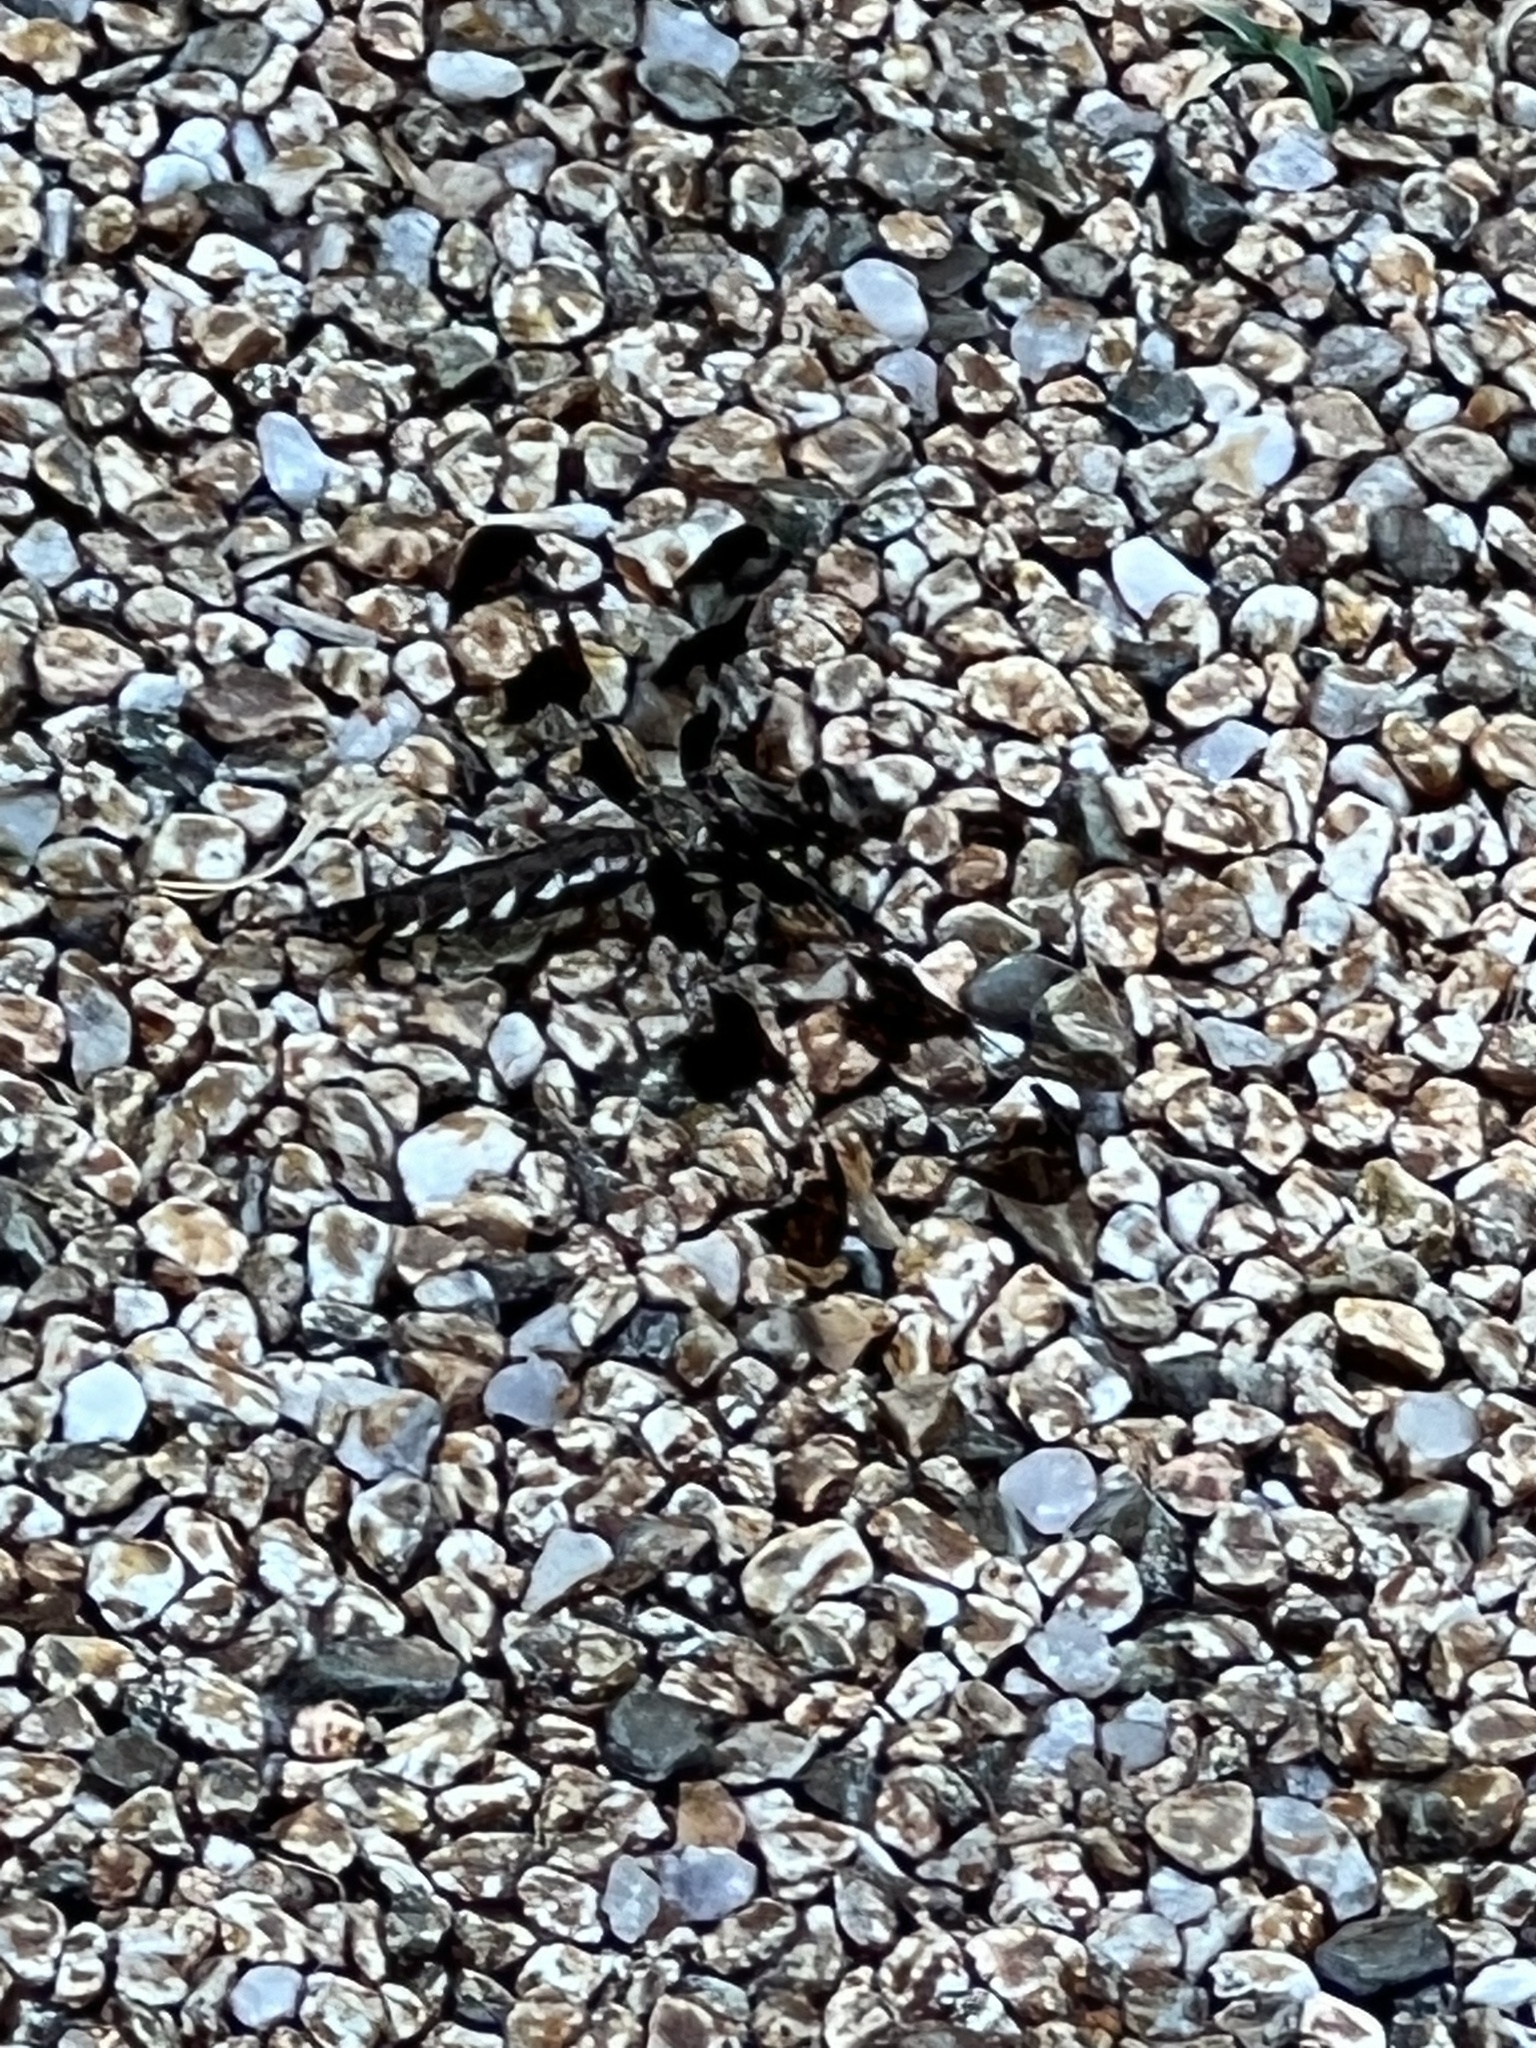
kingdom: Animalia
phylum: Arthropoda
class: Insecta
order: Odonata
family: Libellulidae
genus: Plathemis
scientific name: Plathemis lydia
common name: Common whitetail
